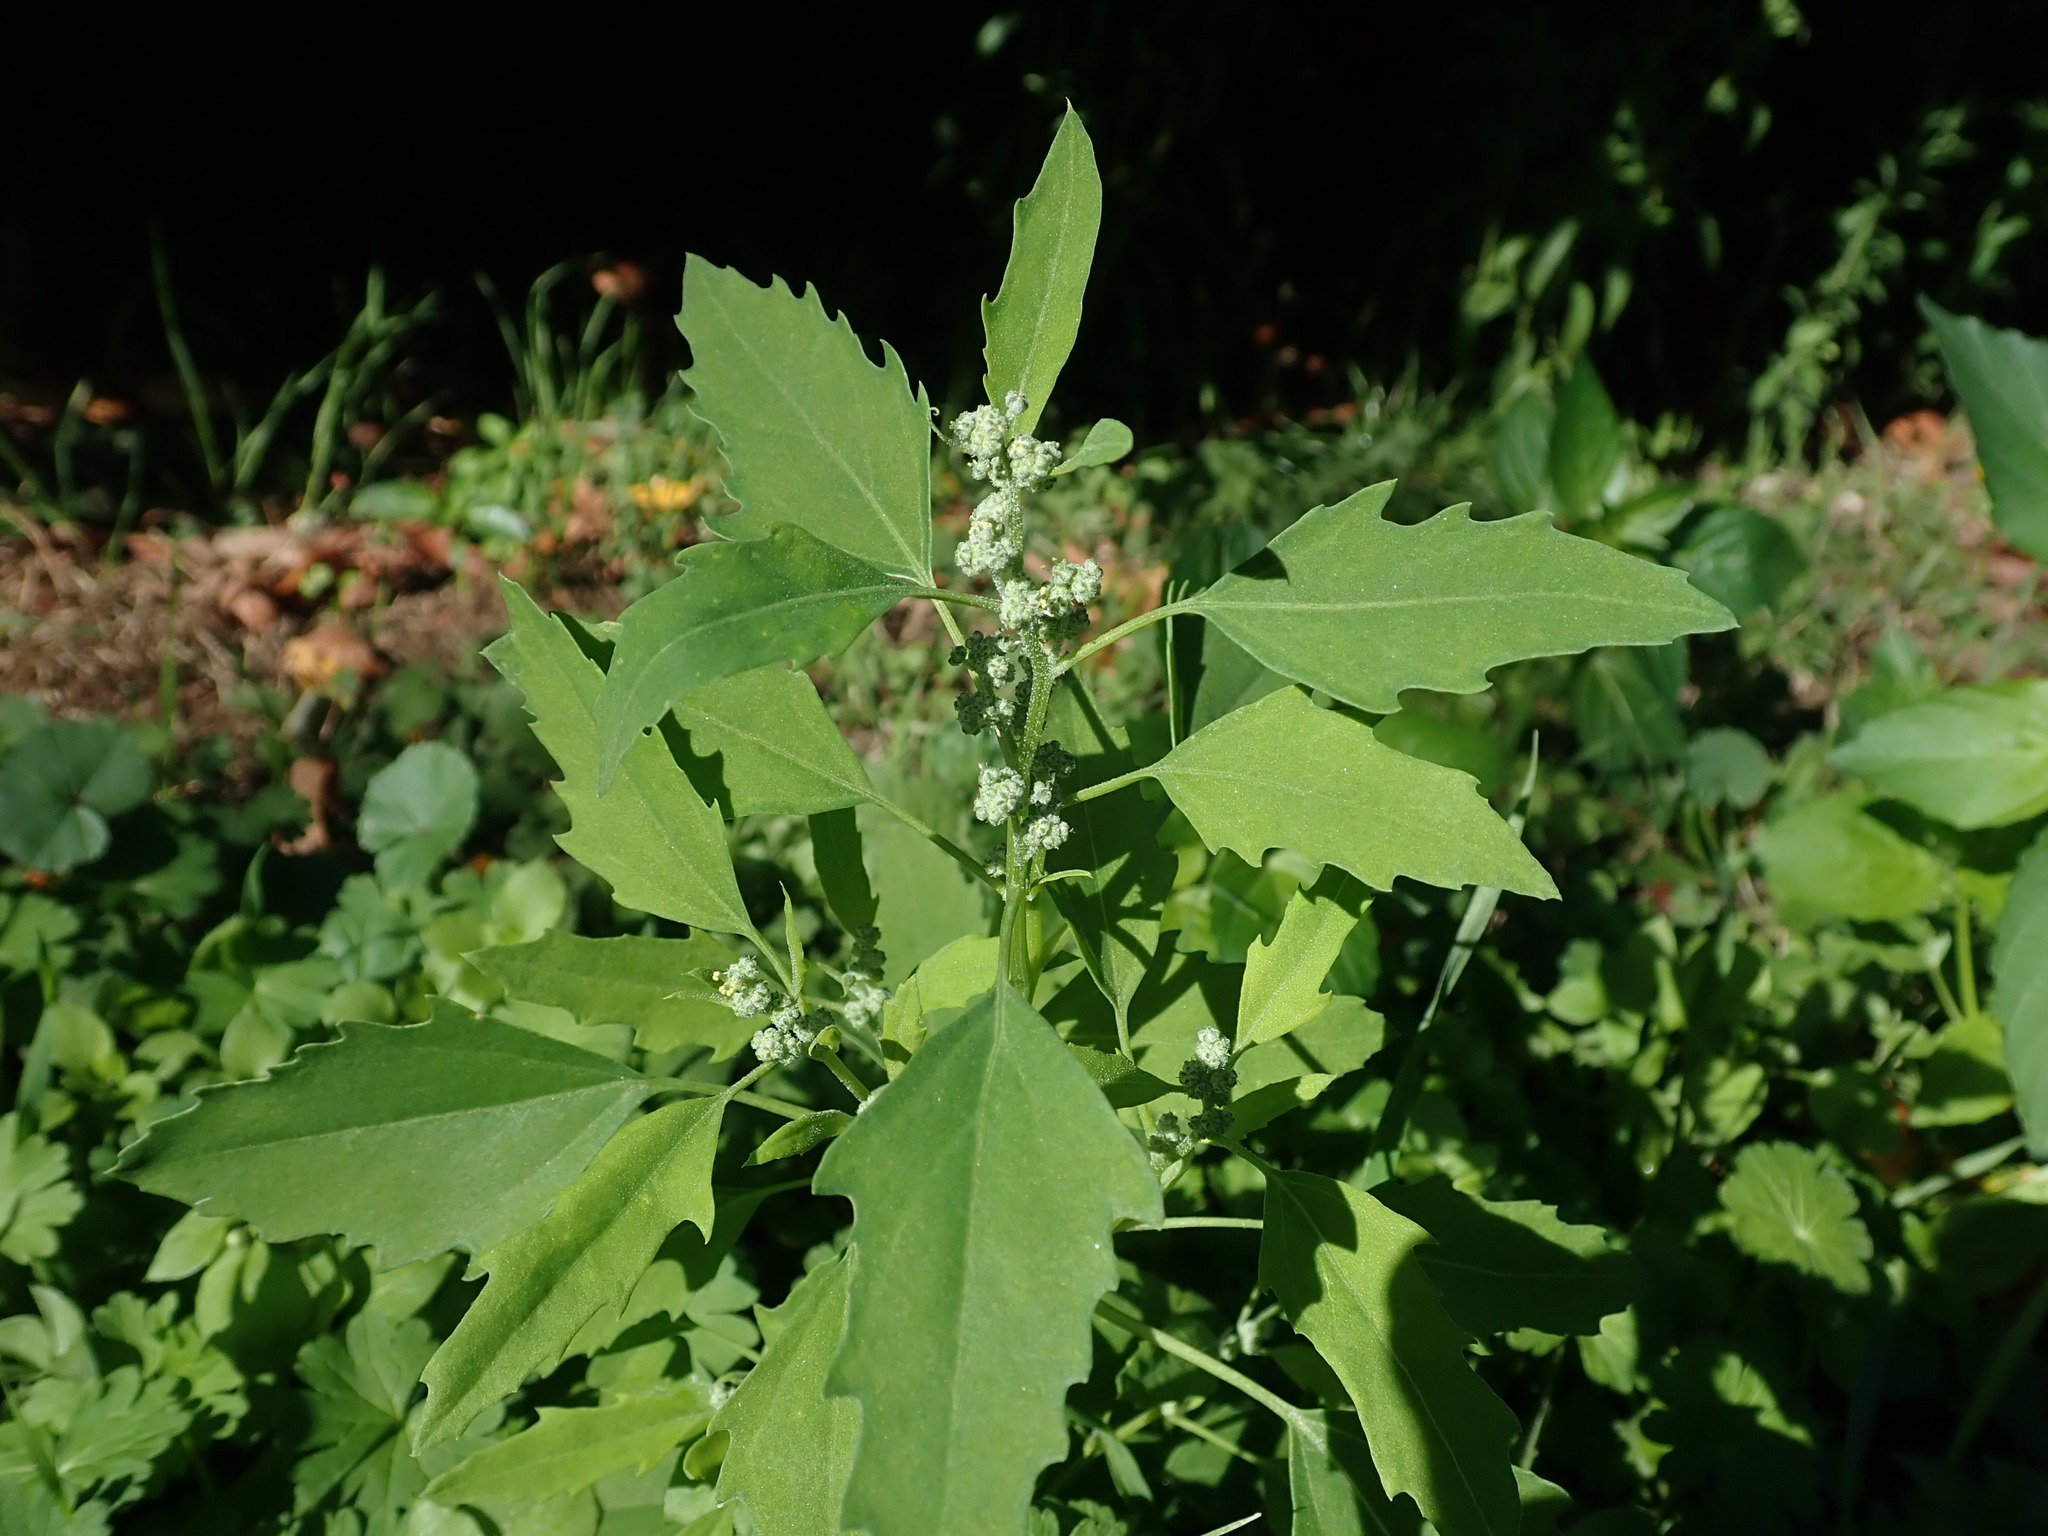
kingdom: Plantae
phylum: Tracheophyta
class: Magnoliopsida
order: Caryophyllales
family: Amaranthaceae
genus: Chenopodium
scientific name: Chenopodium album
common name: Fat-hen
